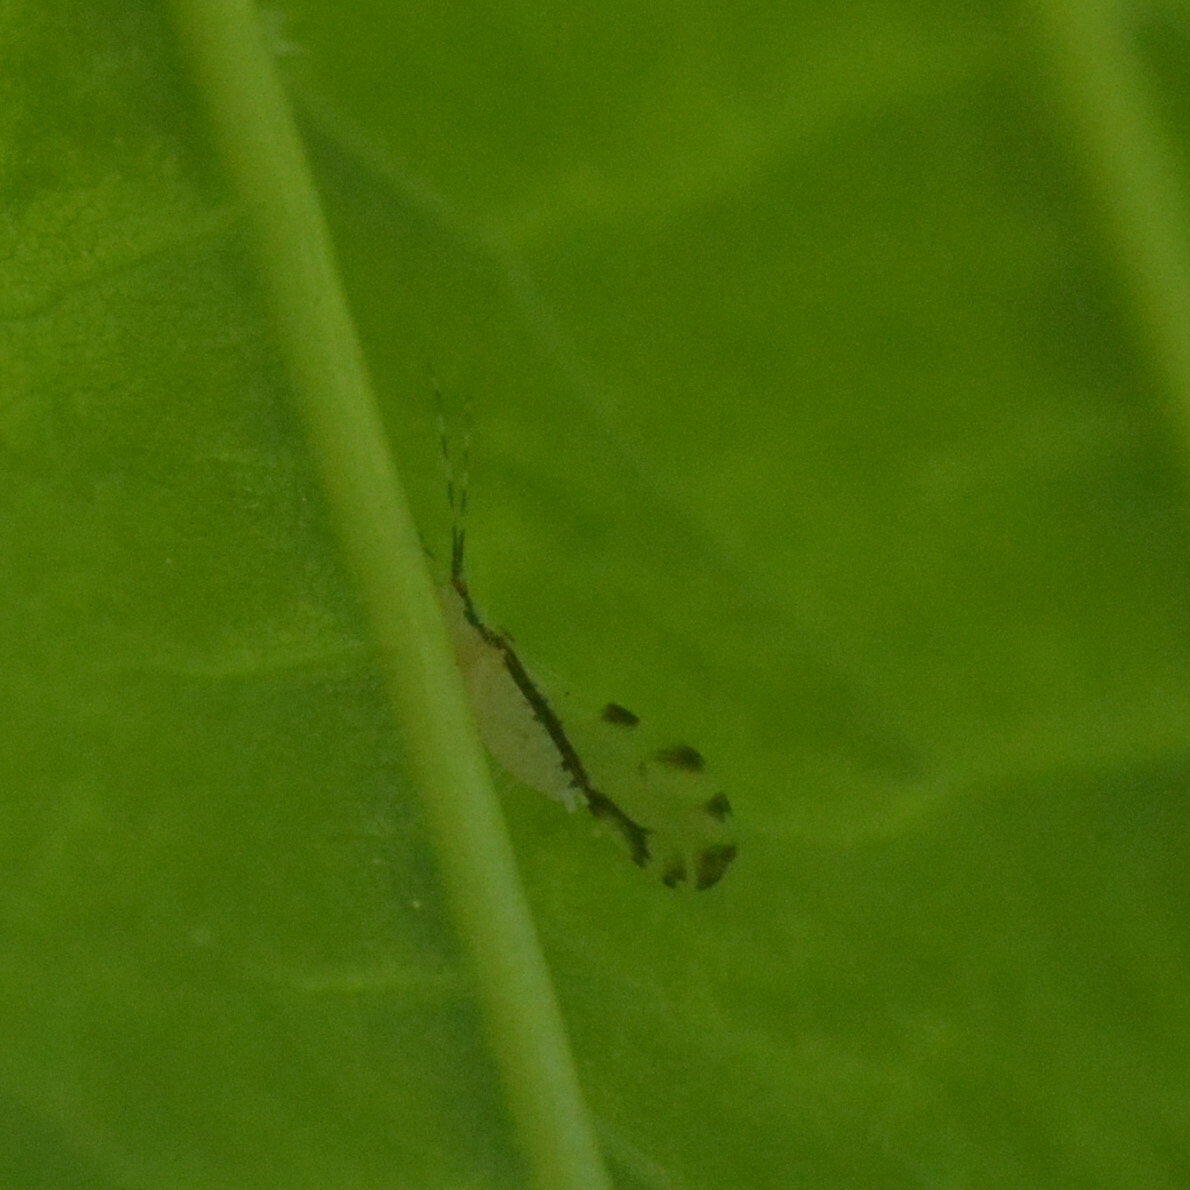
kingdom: Animalia
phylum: Arthropoda
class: Insecta
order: Hemiptera
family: Aphididae
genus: Eucallipterus
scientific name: Eucallipterus tiliae
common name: Aphid
